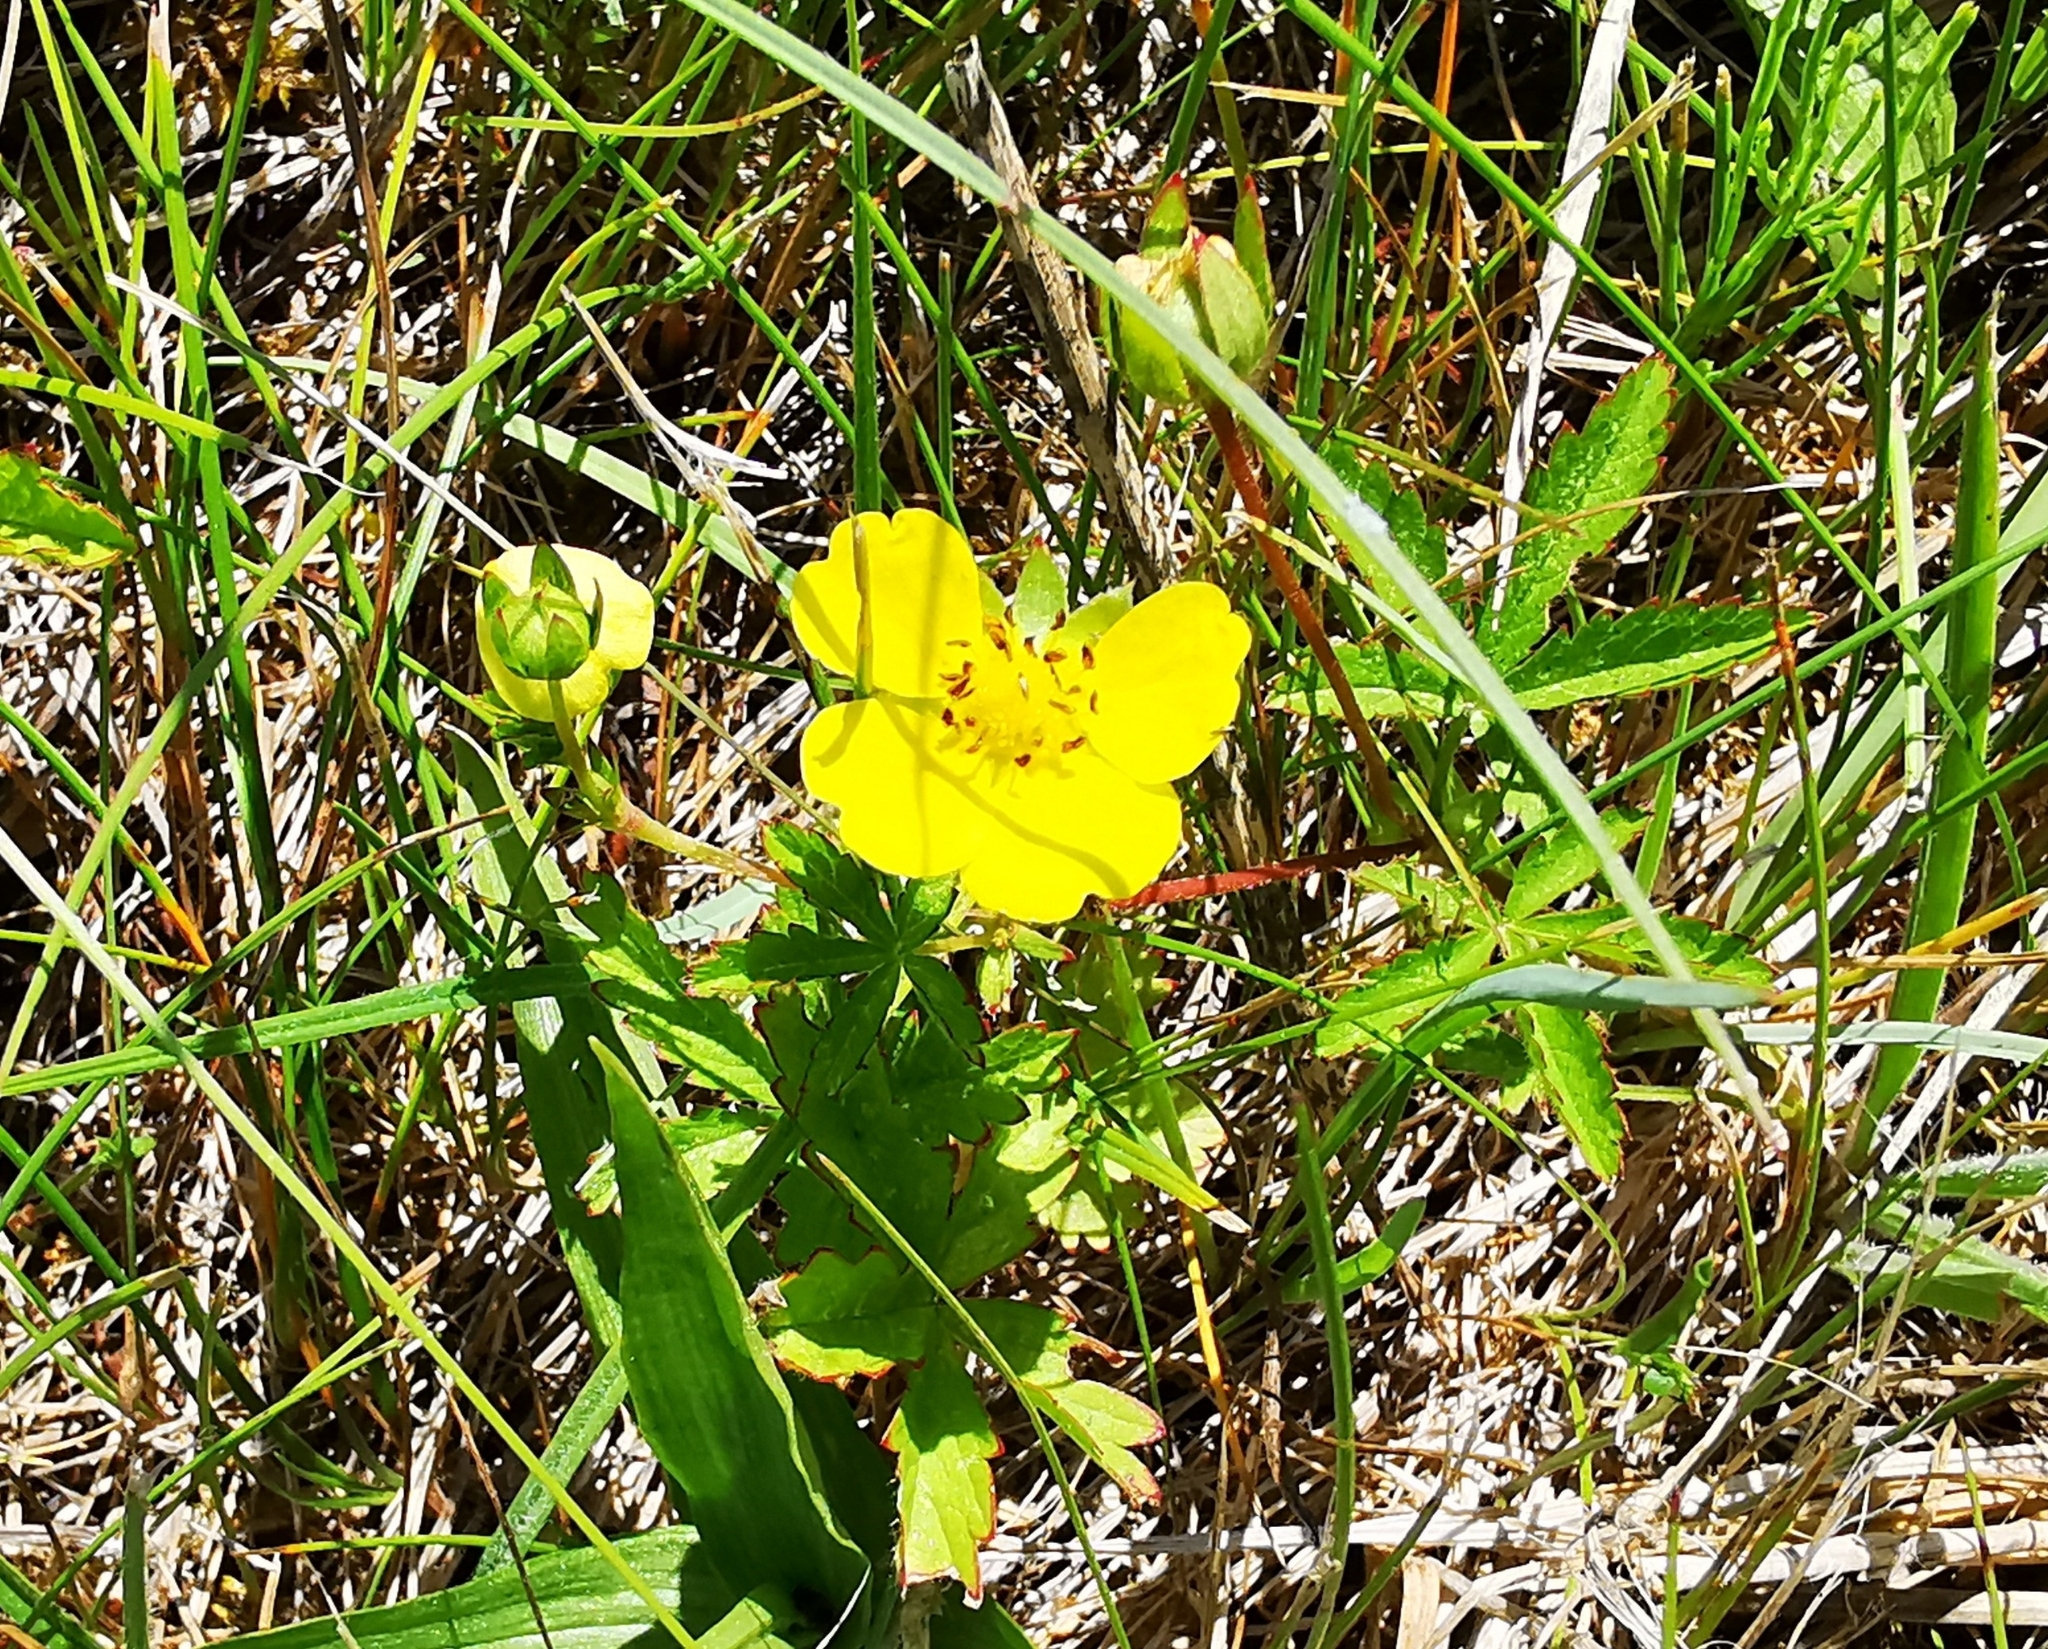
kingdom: Plantae
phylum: Tracheophyta
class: Magnoliopsida
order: Rosales
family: Rosaceae
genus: Potentilla
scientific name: Potentilla reptans
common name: Creeping cinquefoil
